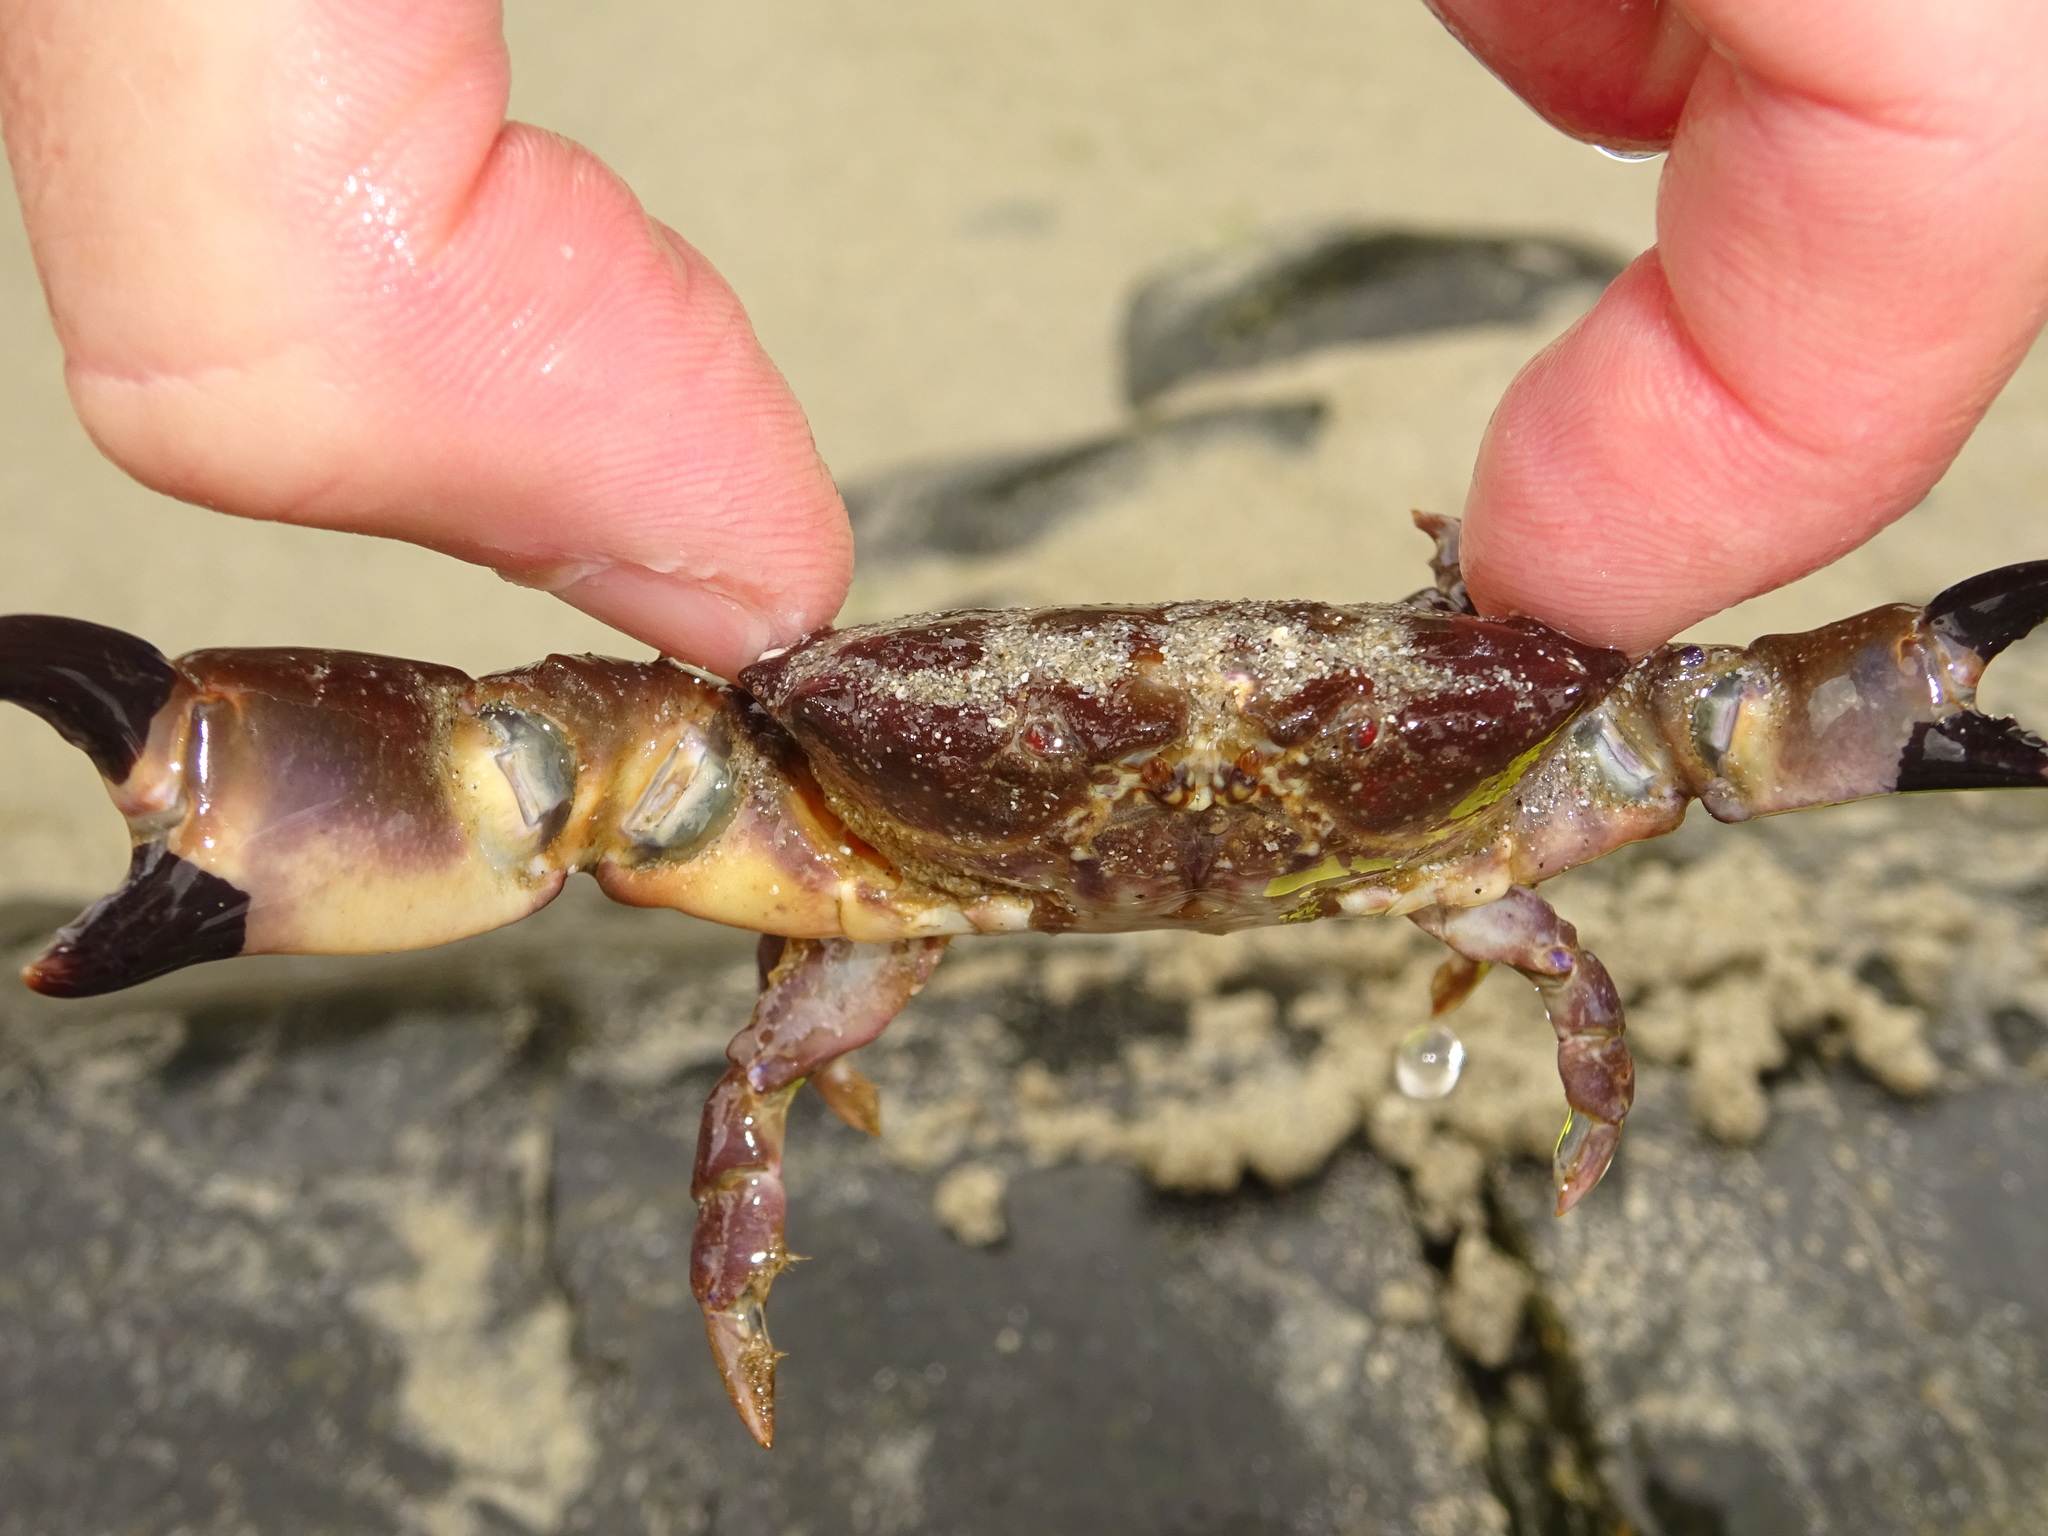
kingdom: Animalia
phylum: Arthropoda
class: Malacostraca
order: Decapoda
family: Xanthidae
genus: Xantho
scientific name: Xantho hydrophilus
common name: Montagu's crab
